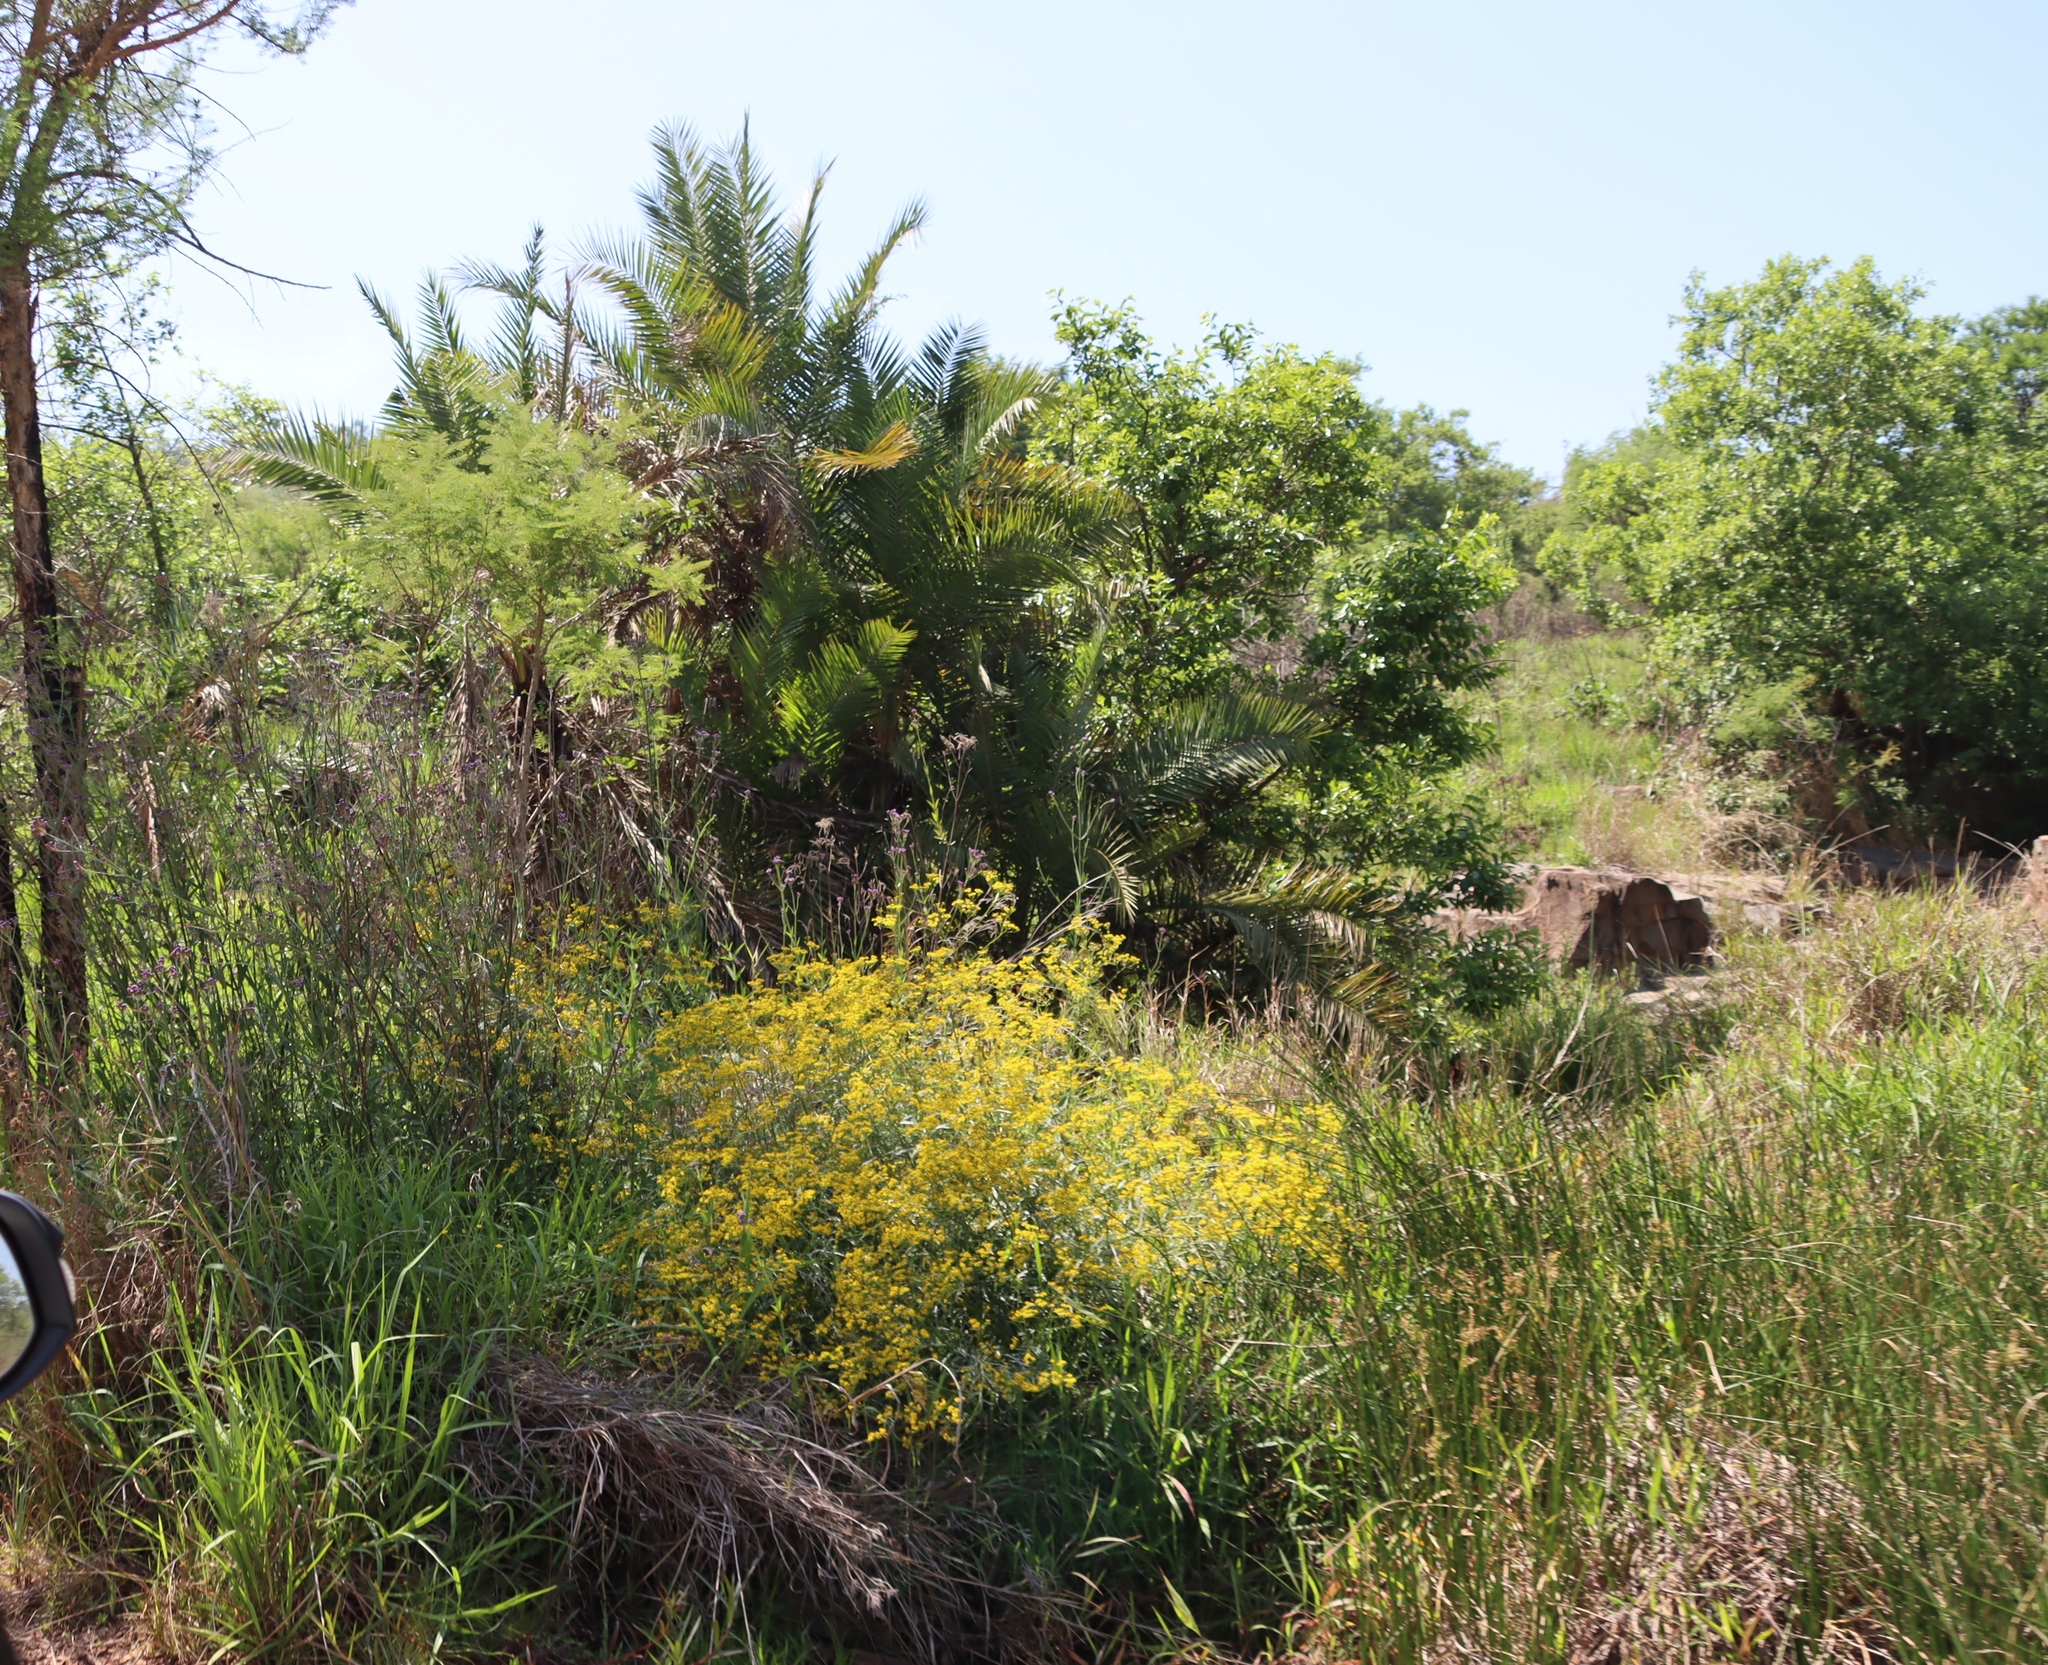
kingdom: Plantae
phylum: Tracheophyta
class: Liliopsida
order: Arecales
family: Arecaceae
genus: Phoenix
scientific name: Phoenix reclinata
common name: Senegal date palm
